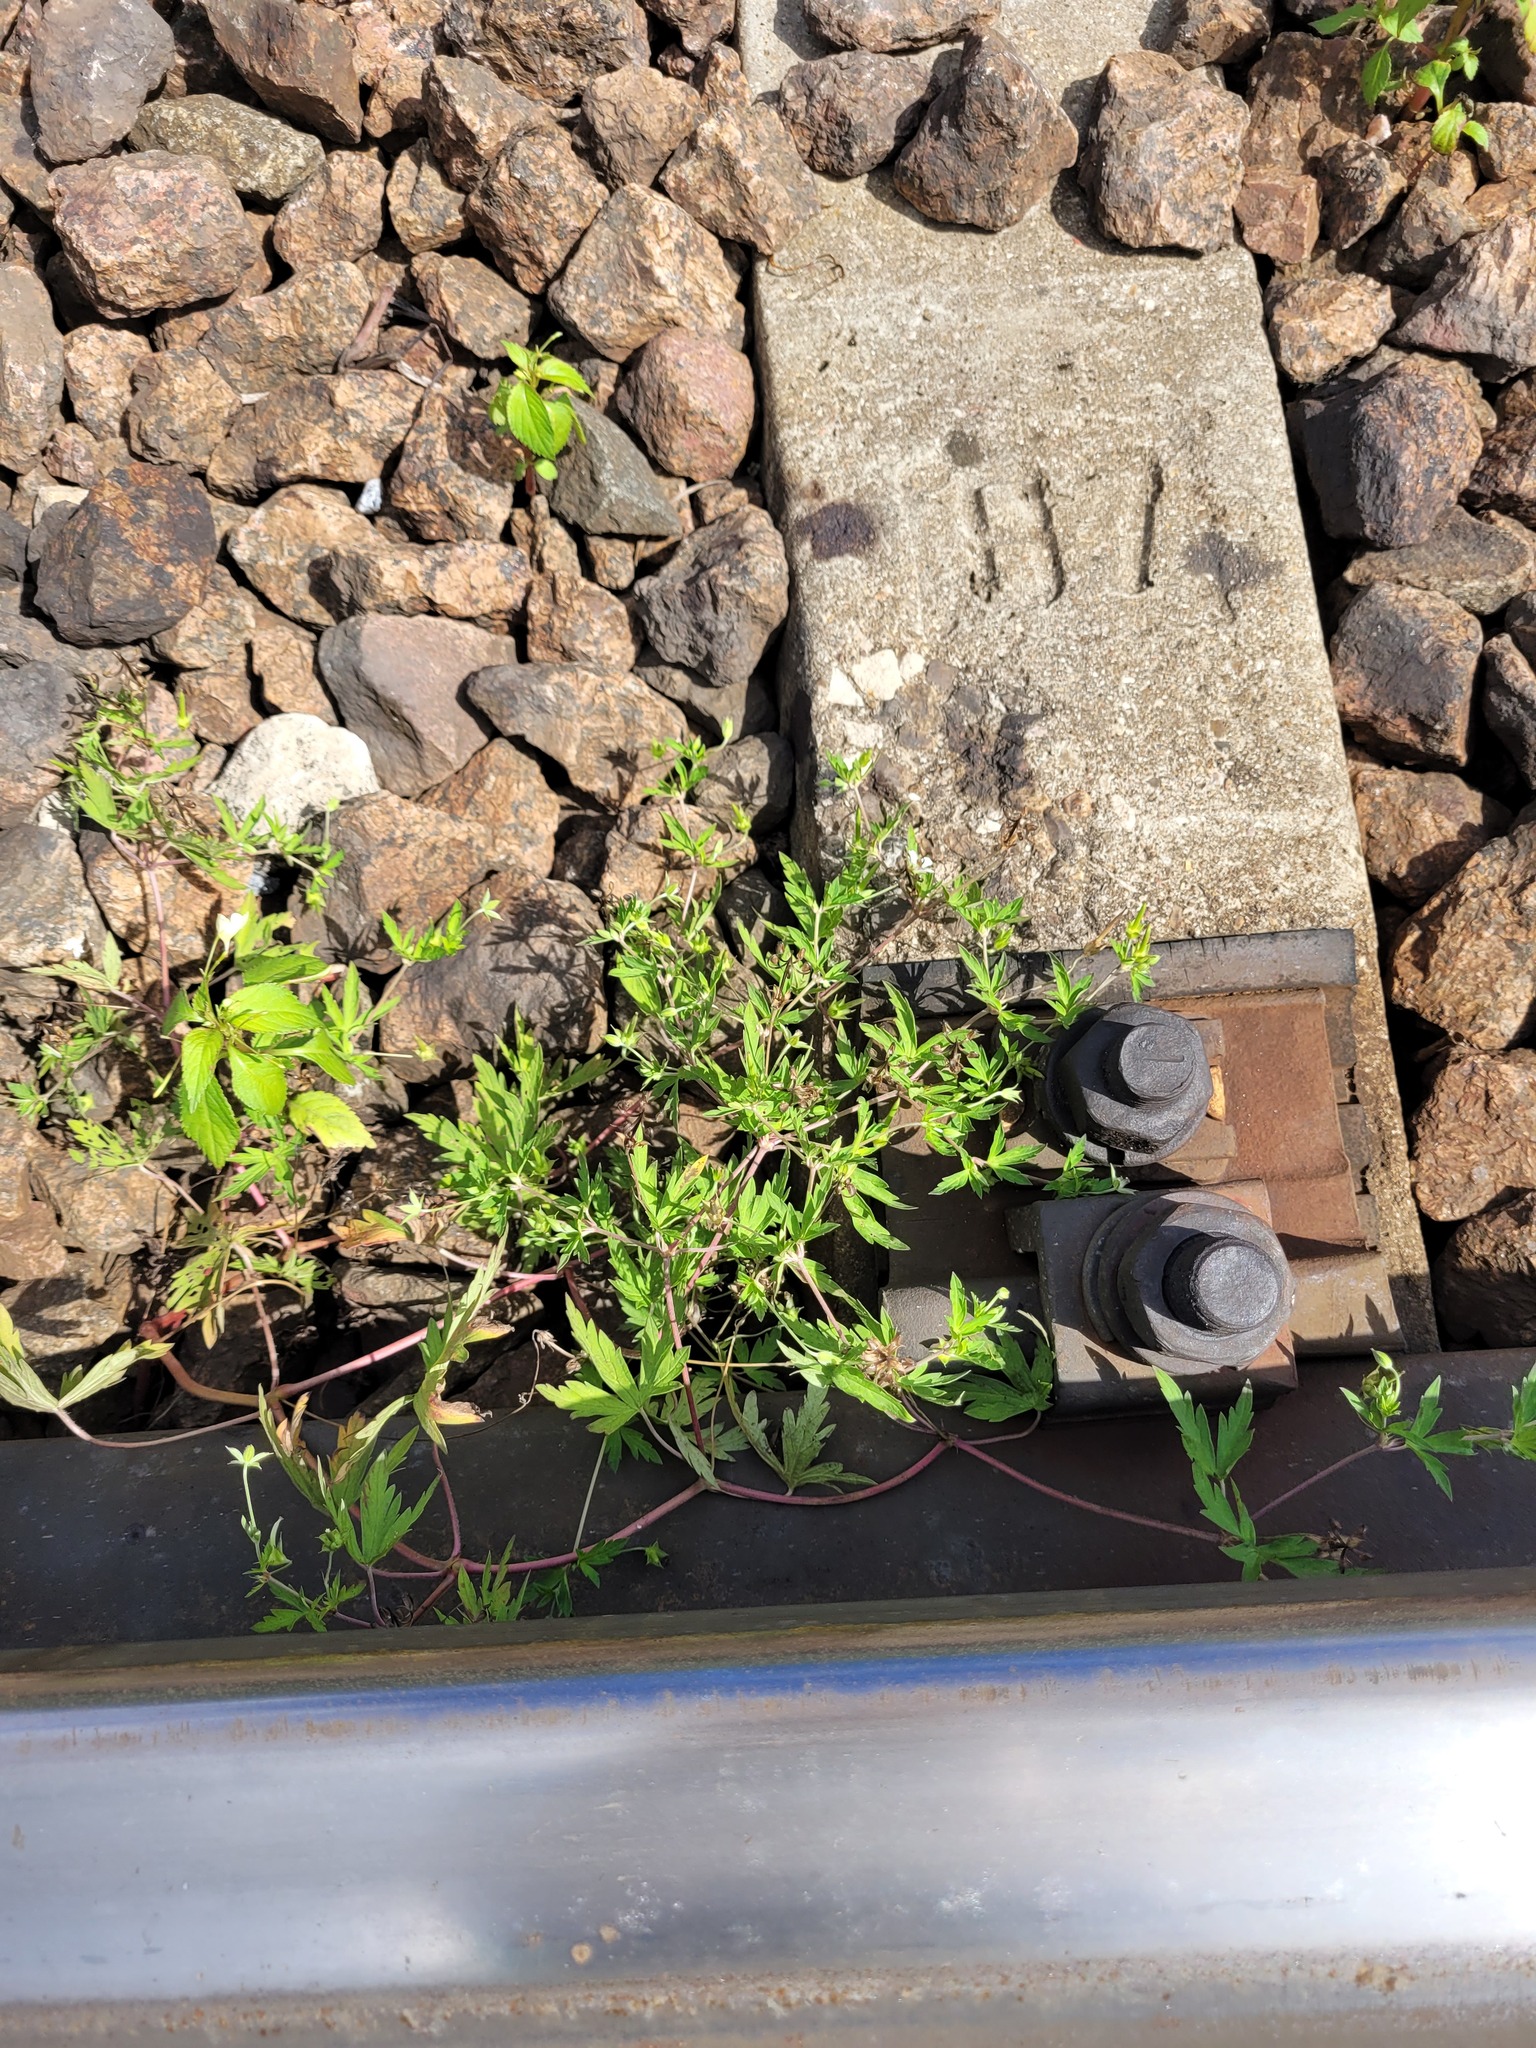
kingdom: Plantae
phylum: Tracheophyta
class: Magnoliopsida
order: Geraniales
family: Geraniaceae
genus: Geranium
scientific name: Geranium sibiricum
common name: Siberian crane's-bill
